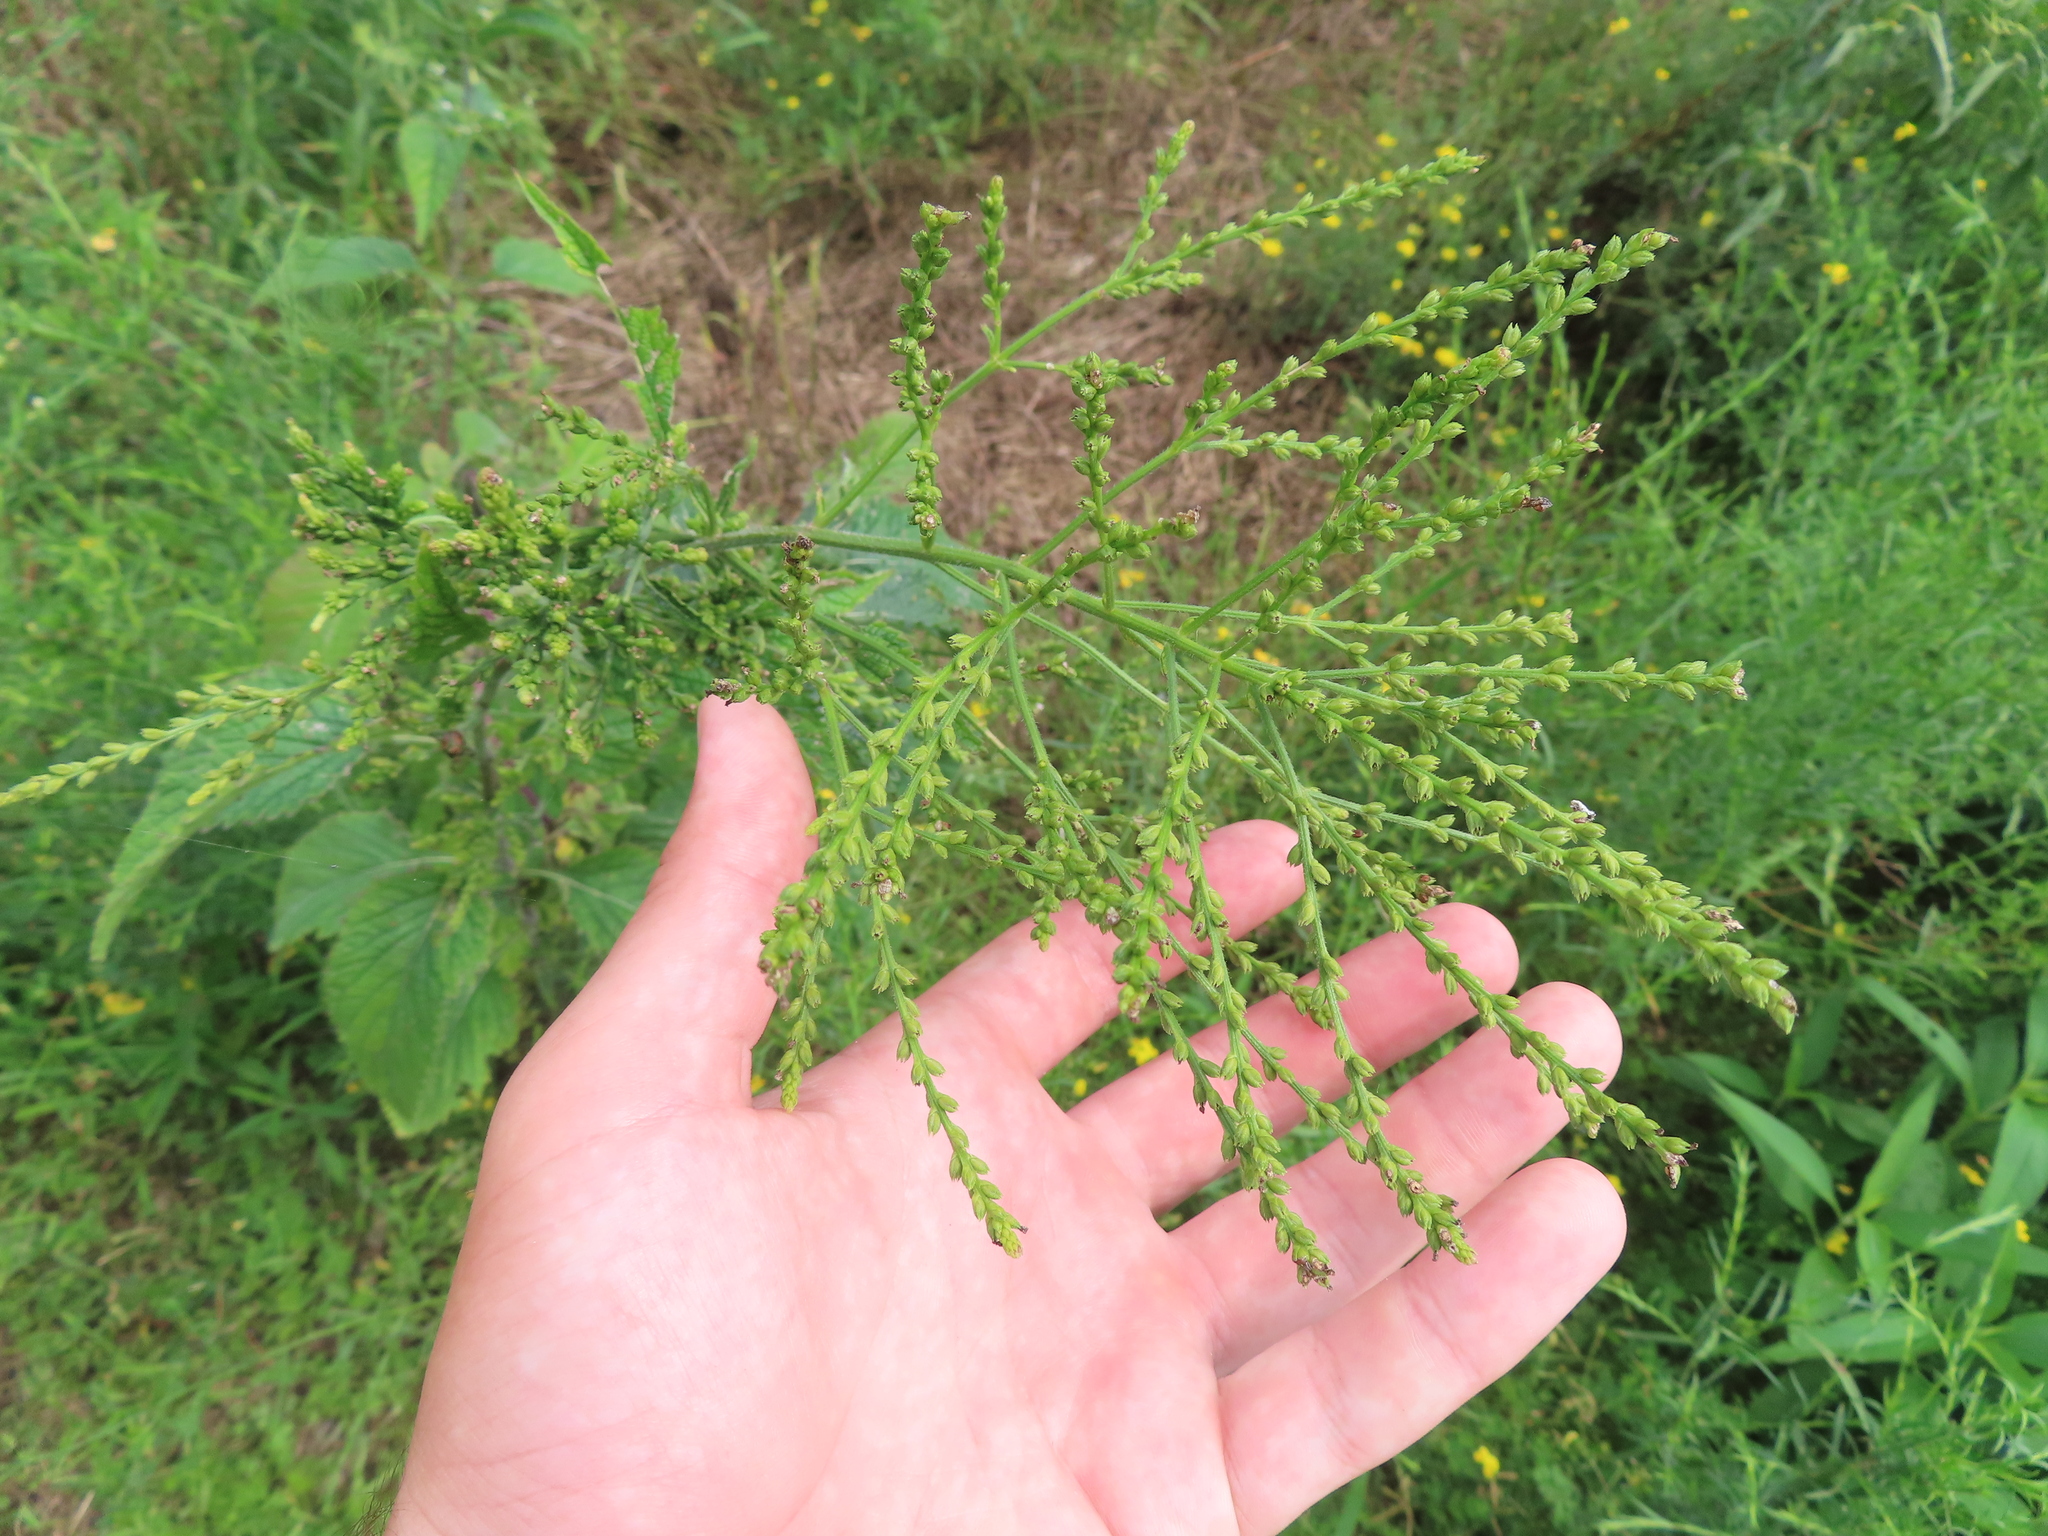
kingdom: Plantae
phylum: Tracheophyta
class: Magnoliopsida
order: Lamiales
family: Verbenaceae
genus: Verbena
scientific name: Verbena urticifolia
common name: Nettle-leaved vervain
